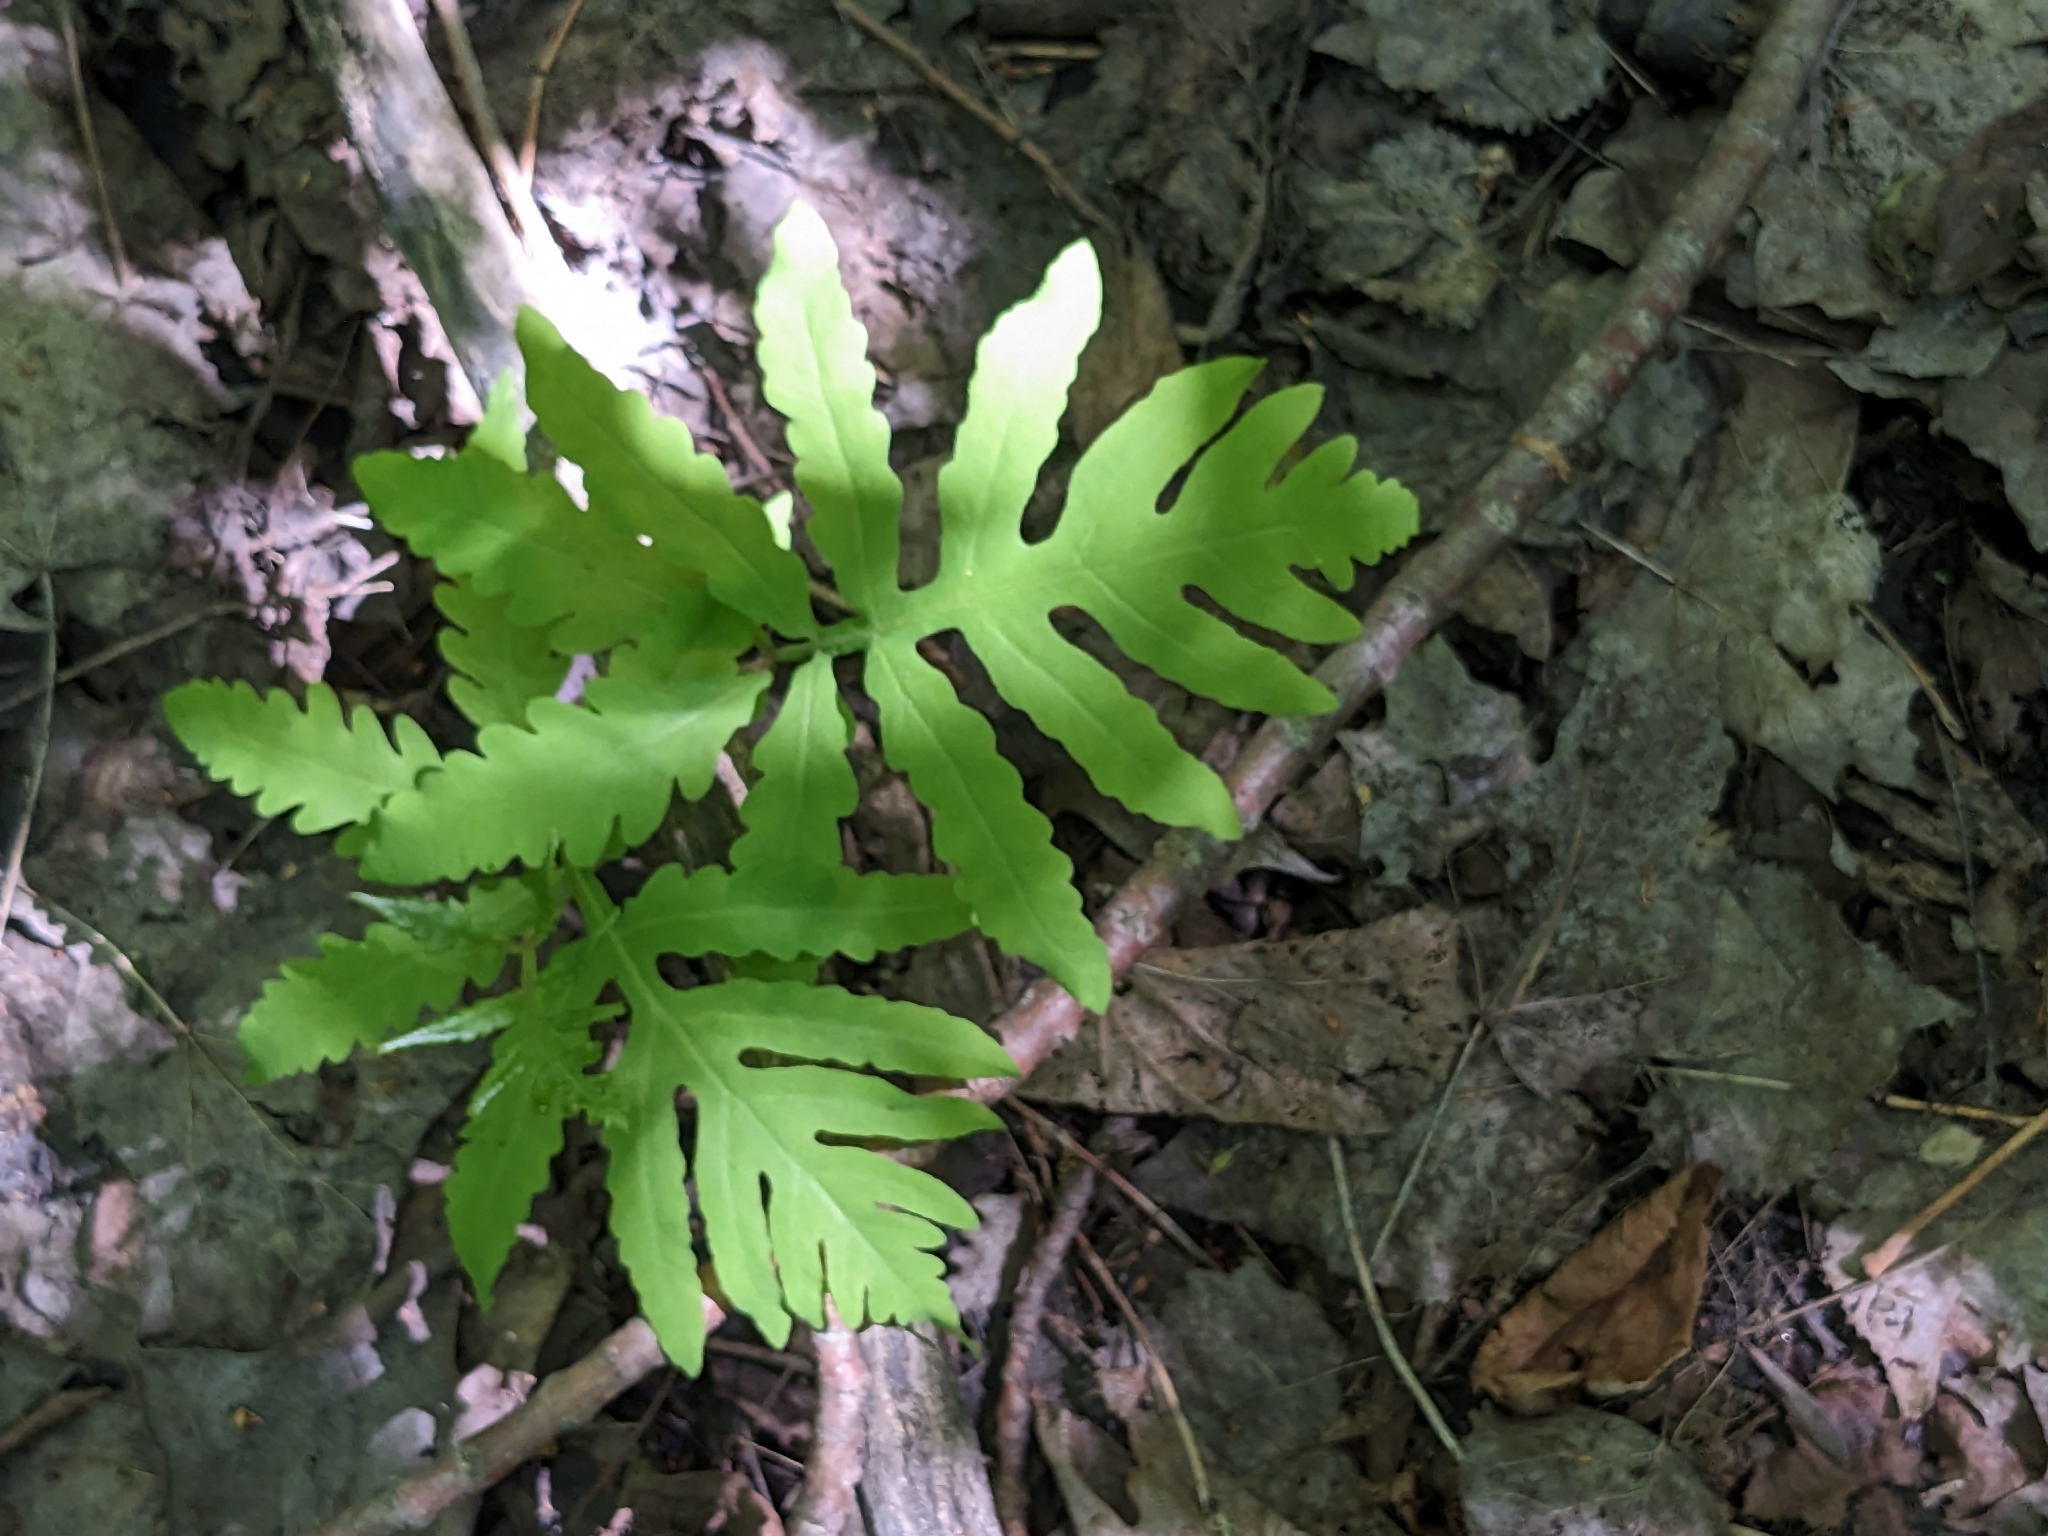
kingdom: Plantae
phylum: Tracheophyta
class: Polypodiopsida
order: Polypodiales
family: Onocleaceae
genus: Onoclea
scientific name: Onoclea sensibilis
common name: Sensitive fern
